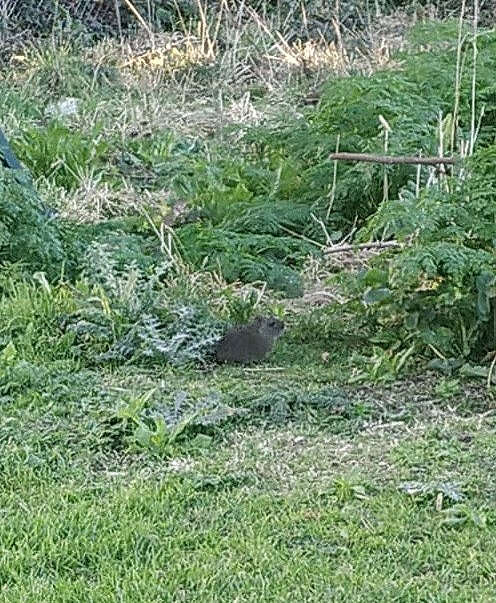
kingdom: Animalia
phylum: Chordata
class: Mammalia
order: Rodentia
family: Caviidae
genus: Cavia
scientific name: Cavia aperea
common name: Brazilian guinea pig
